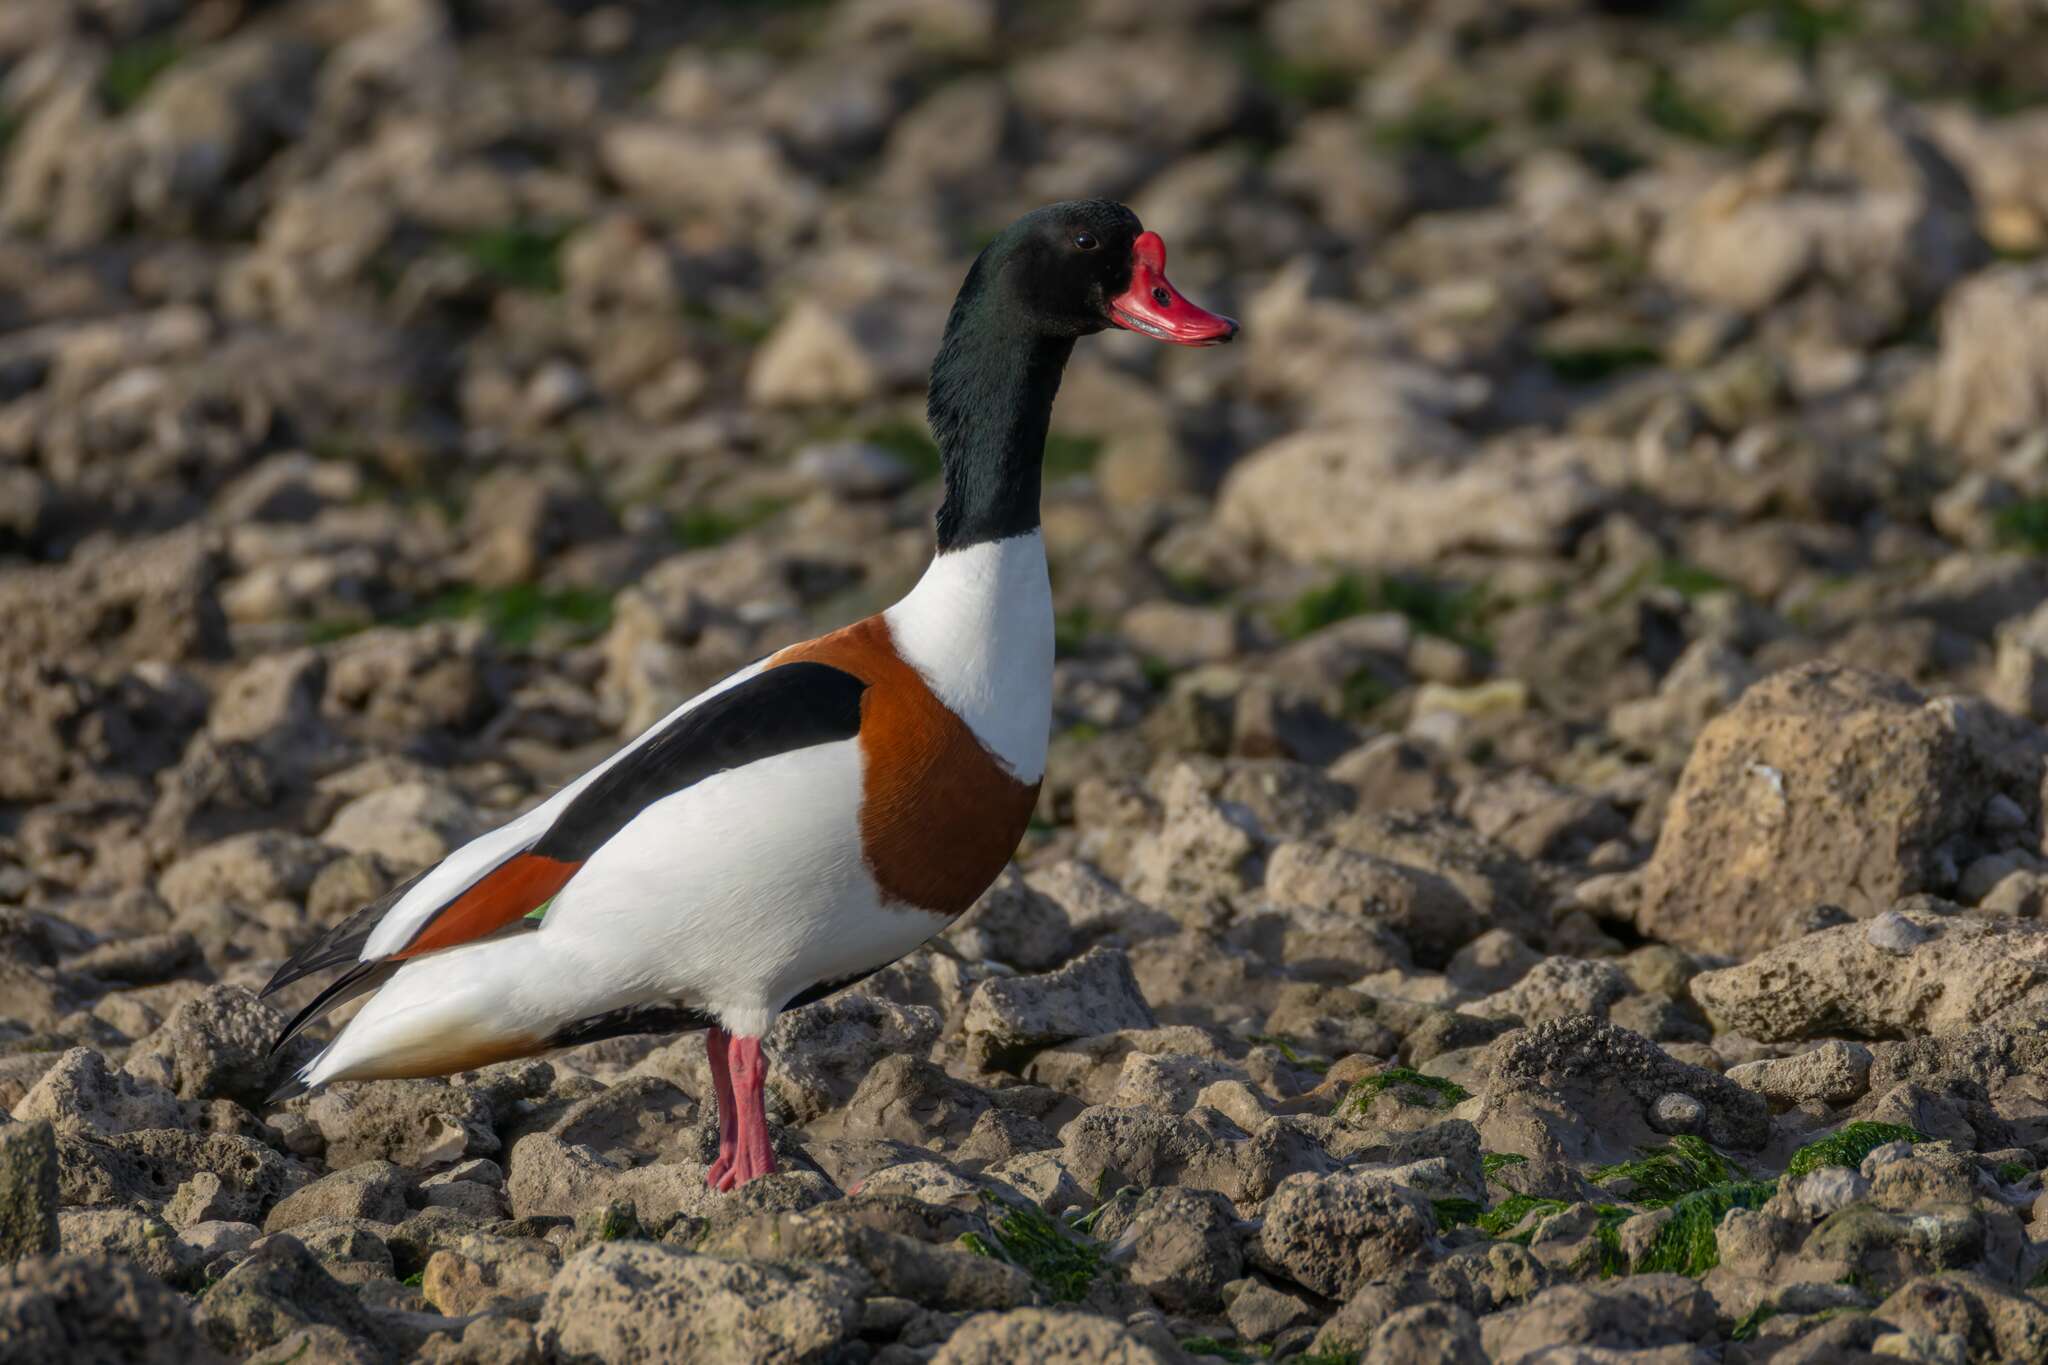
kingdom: Animalia
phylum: Chordata
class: Aves
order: Anseriformes
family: Anatidae
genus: Tadorna
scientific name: Tadorna tadorna
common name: Common shelduck
